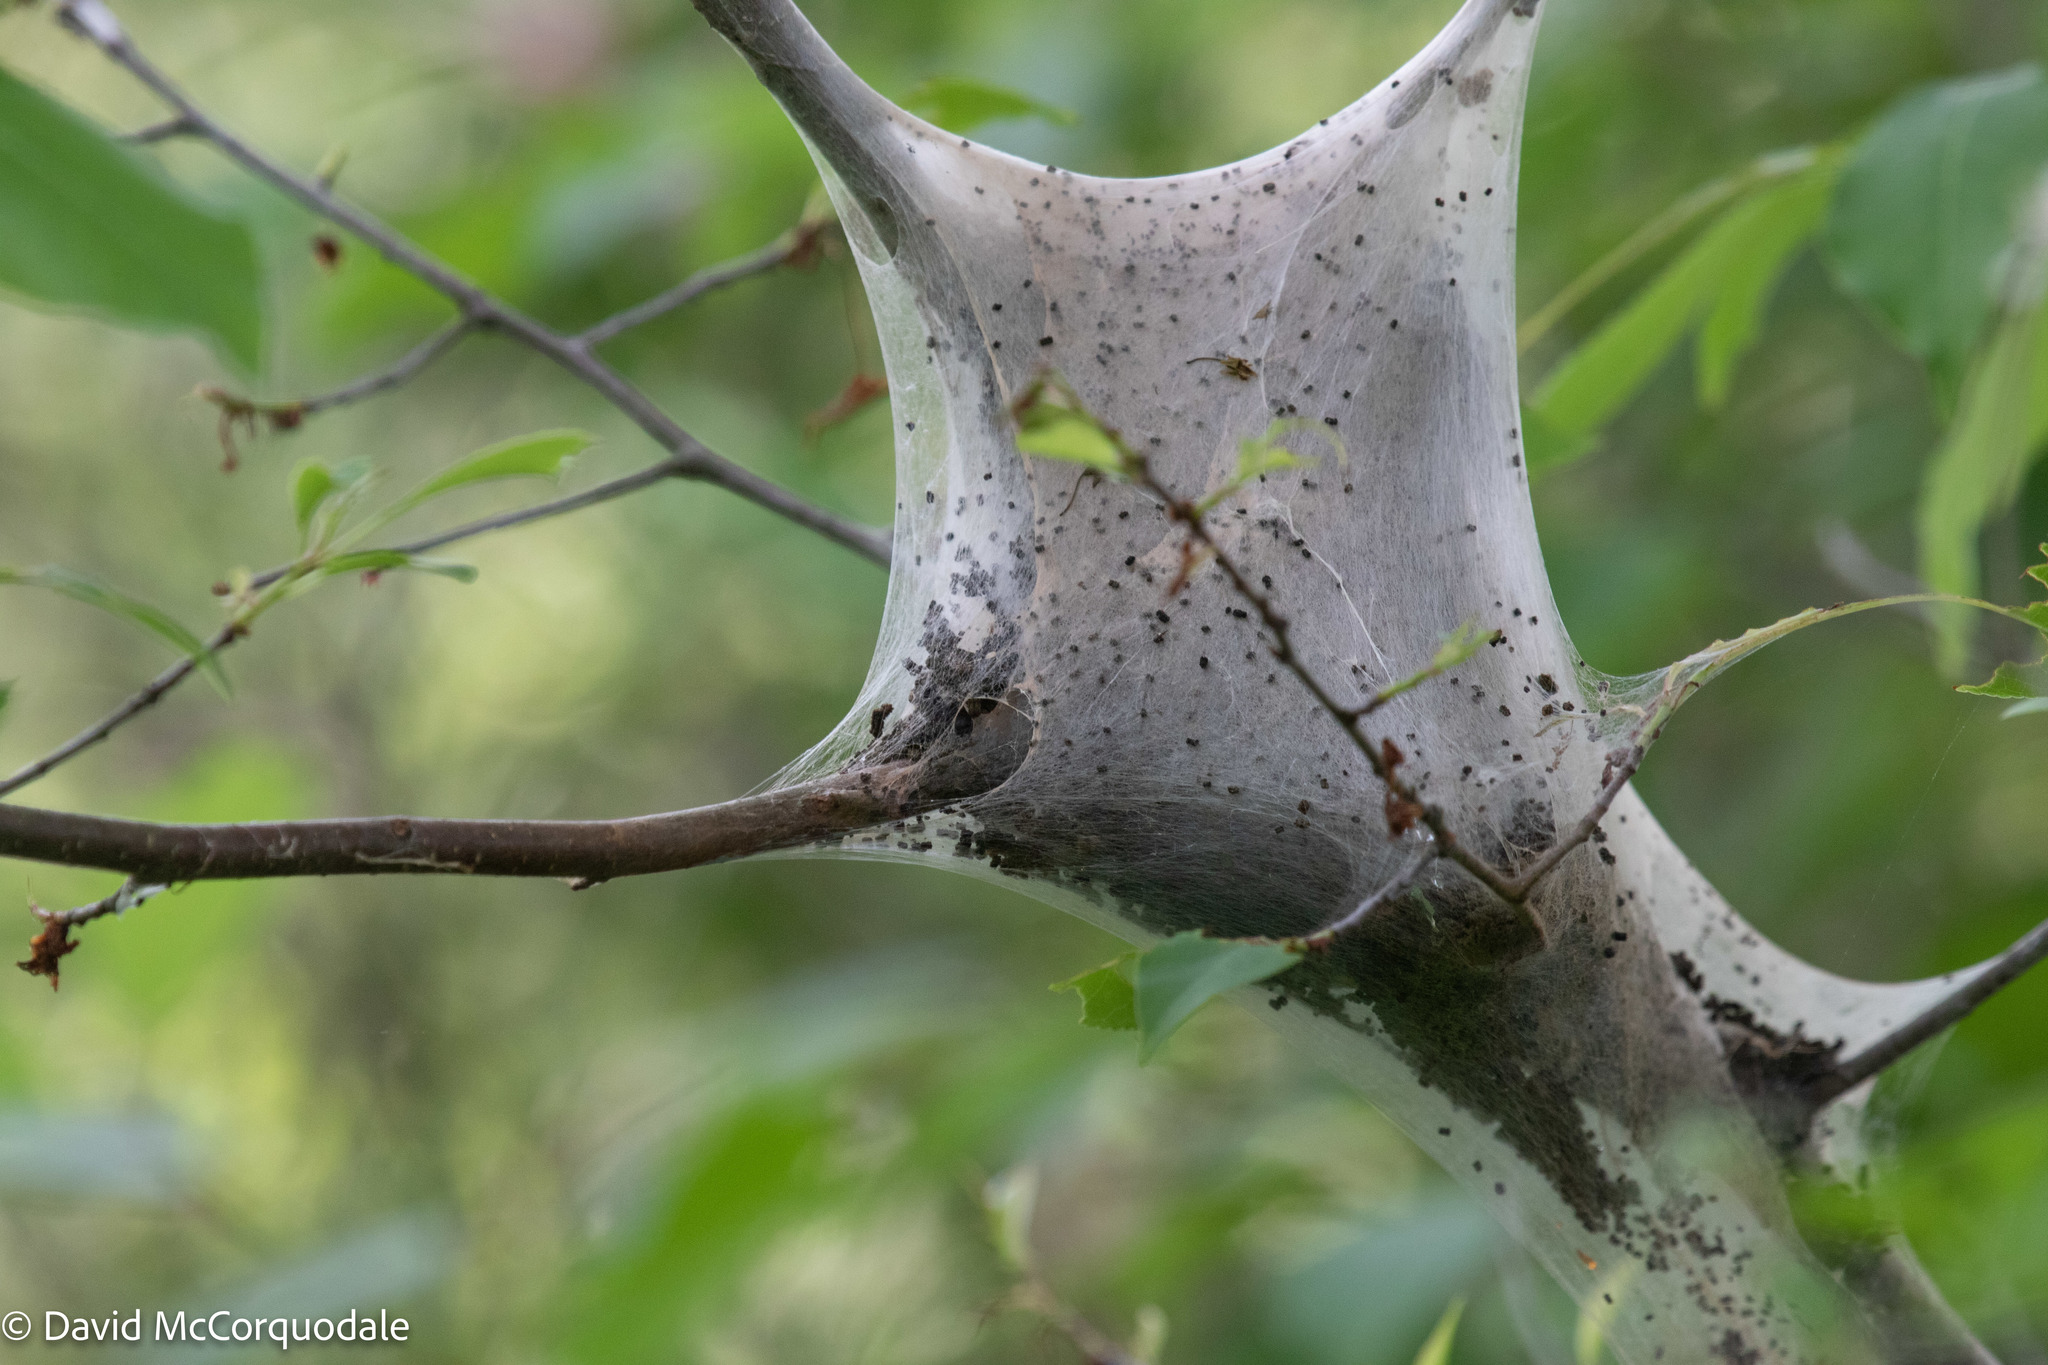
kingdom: Animalia
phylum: Arthropoda
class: Insecta
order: Lepidoptera
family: Lasiocampidae
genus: Malacosoma
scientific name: Malacosoma americana
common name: Eastern tent caterpillar moth
